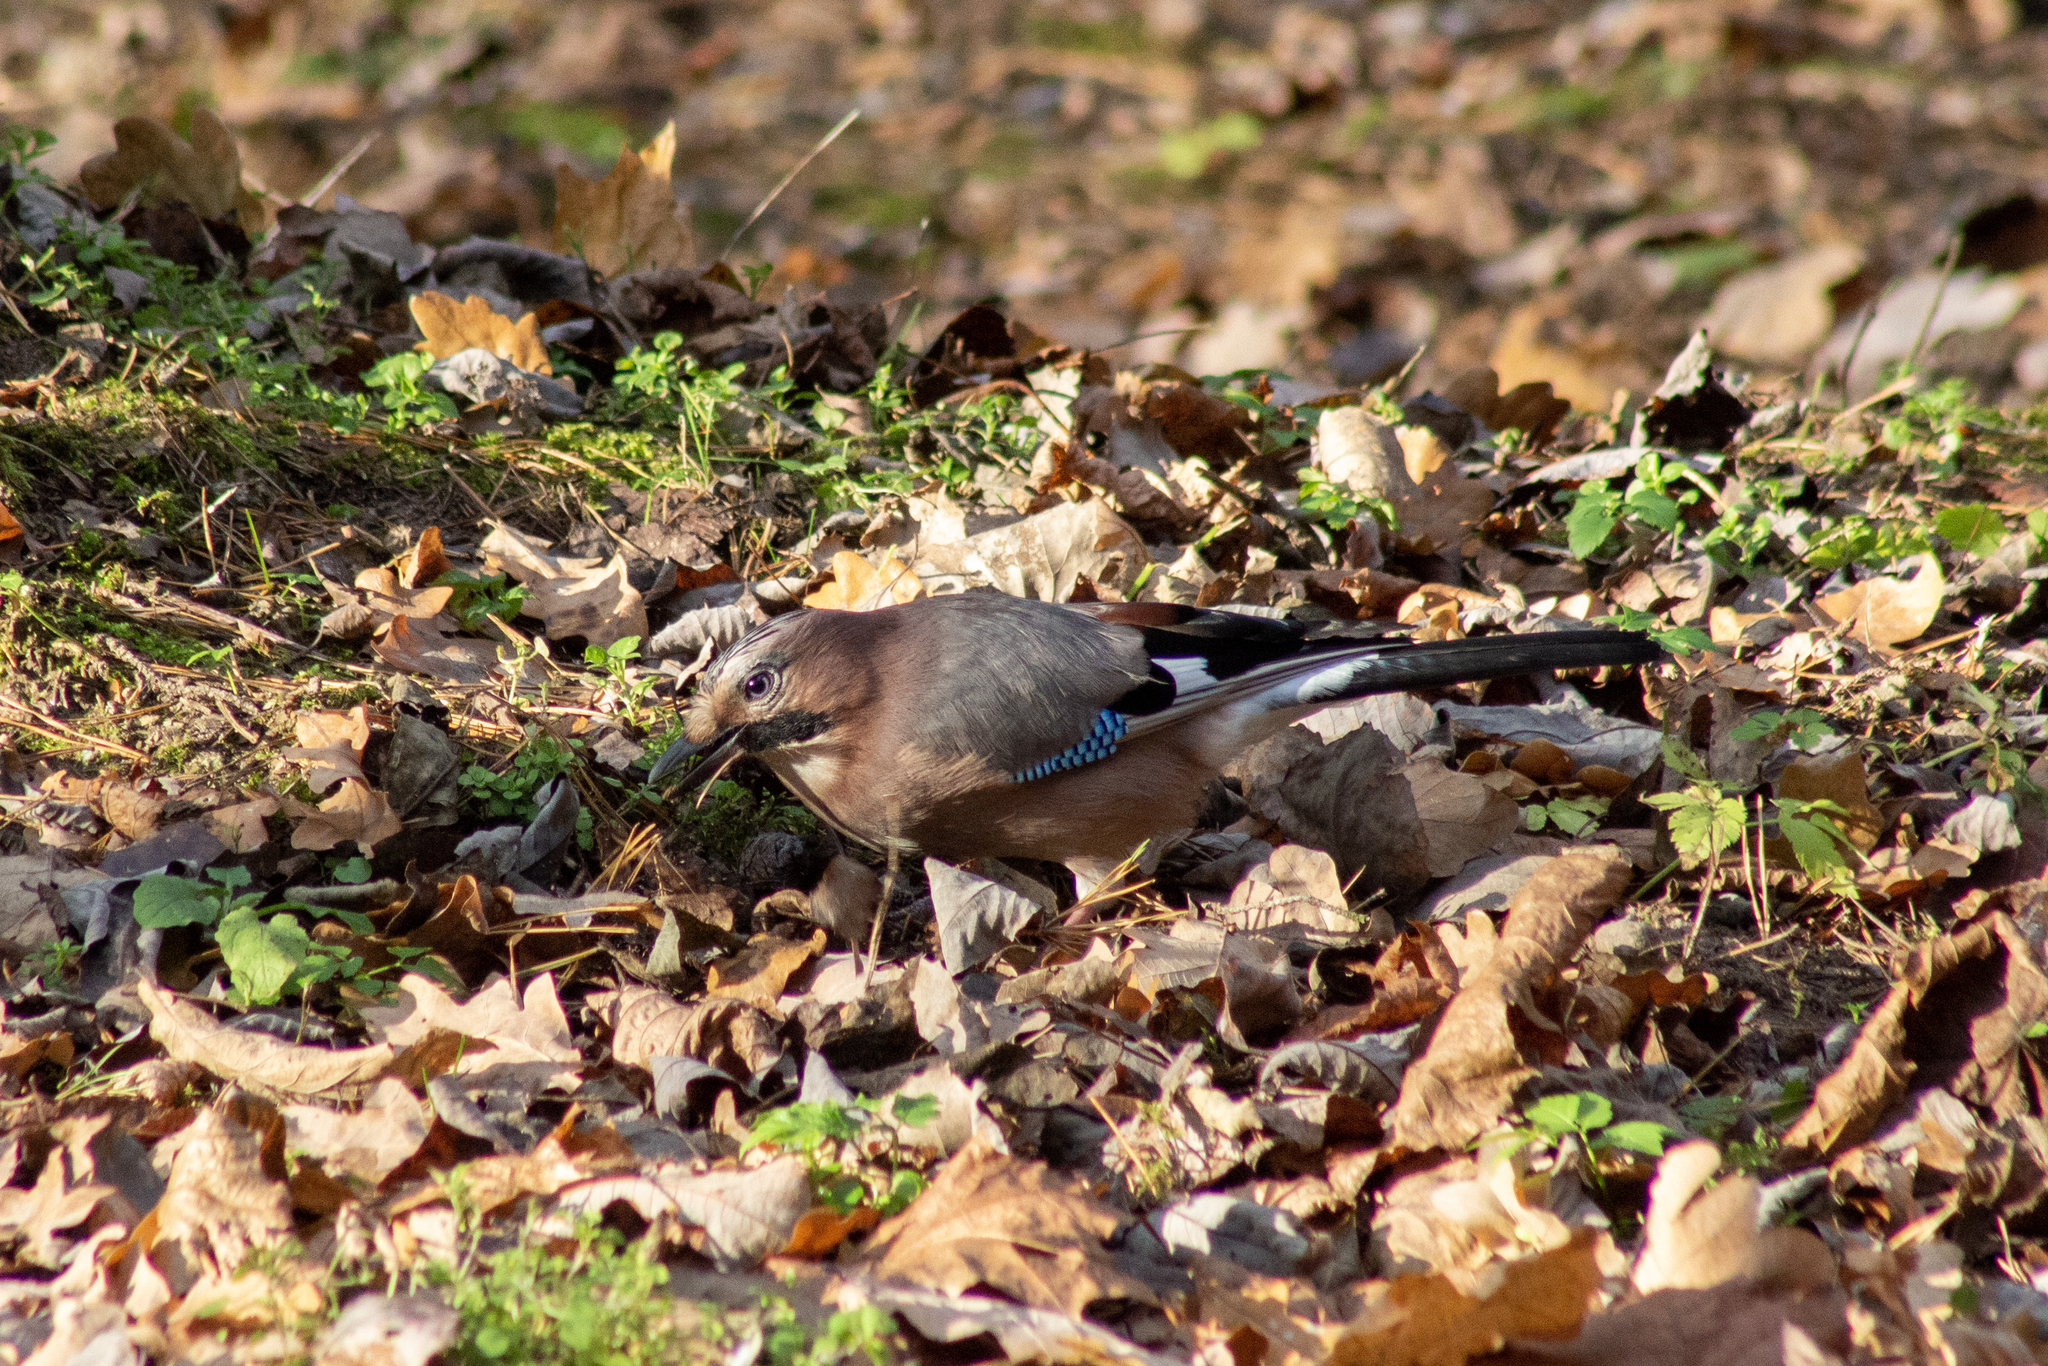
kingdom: Animalia
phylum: Chordata
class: Aves
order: Passeriformes
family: Corvidae
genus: Garrulus
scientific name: Garrulus glandarius
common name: Eurasian jay
